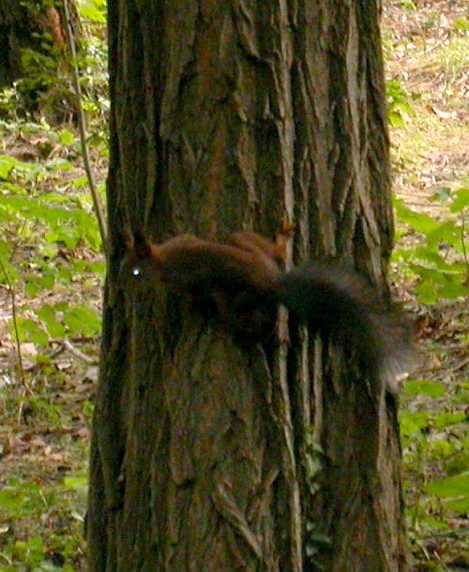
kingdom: Animalia
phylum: Chordata
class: Mammalia
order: Rodentia
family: Sciuridae
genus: Sciurus
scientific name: Sciurus vulgaris
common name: Eurasian red squirrel
